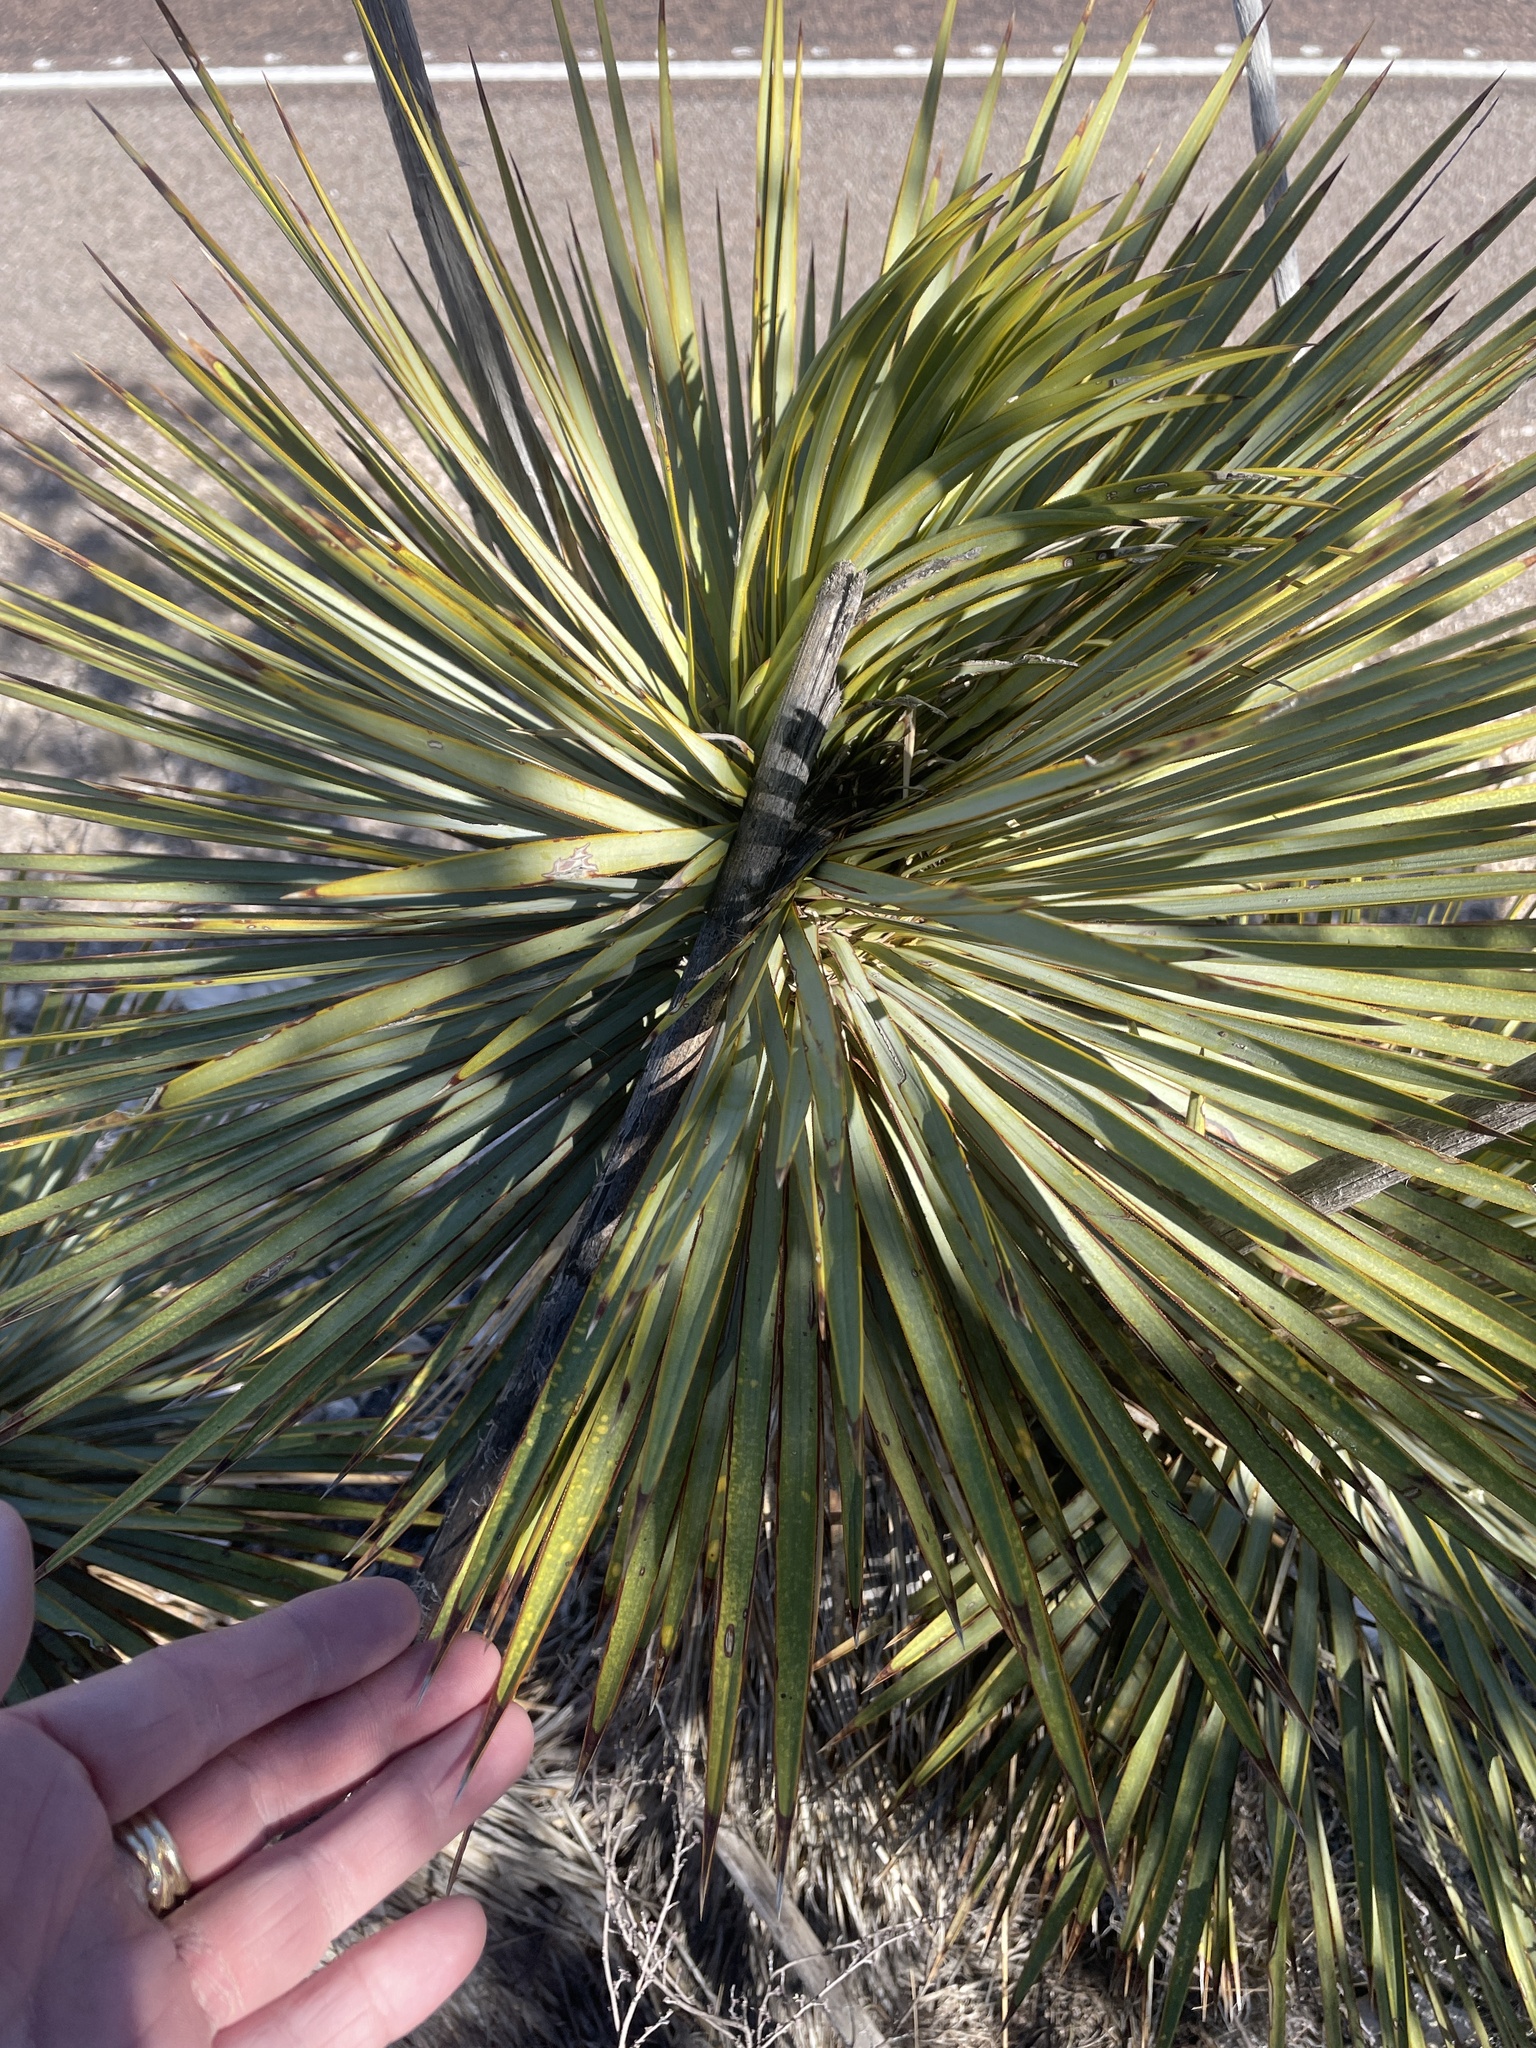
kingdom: Plantae
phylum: Tracheophyta
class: Liliopsida
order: Asparagales
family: Asparagaceae
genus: Yucca
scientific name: Yucca thompsoniana
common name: Trans-pecos yucca
